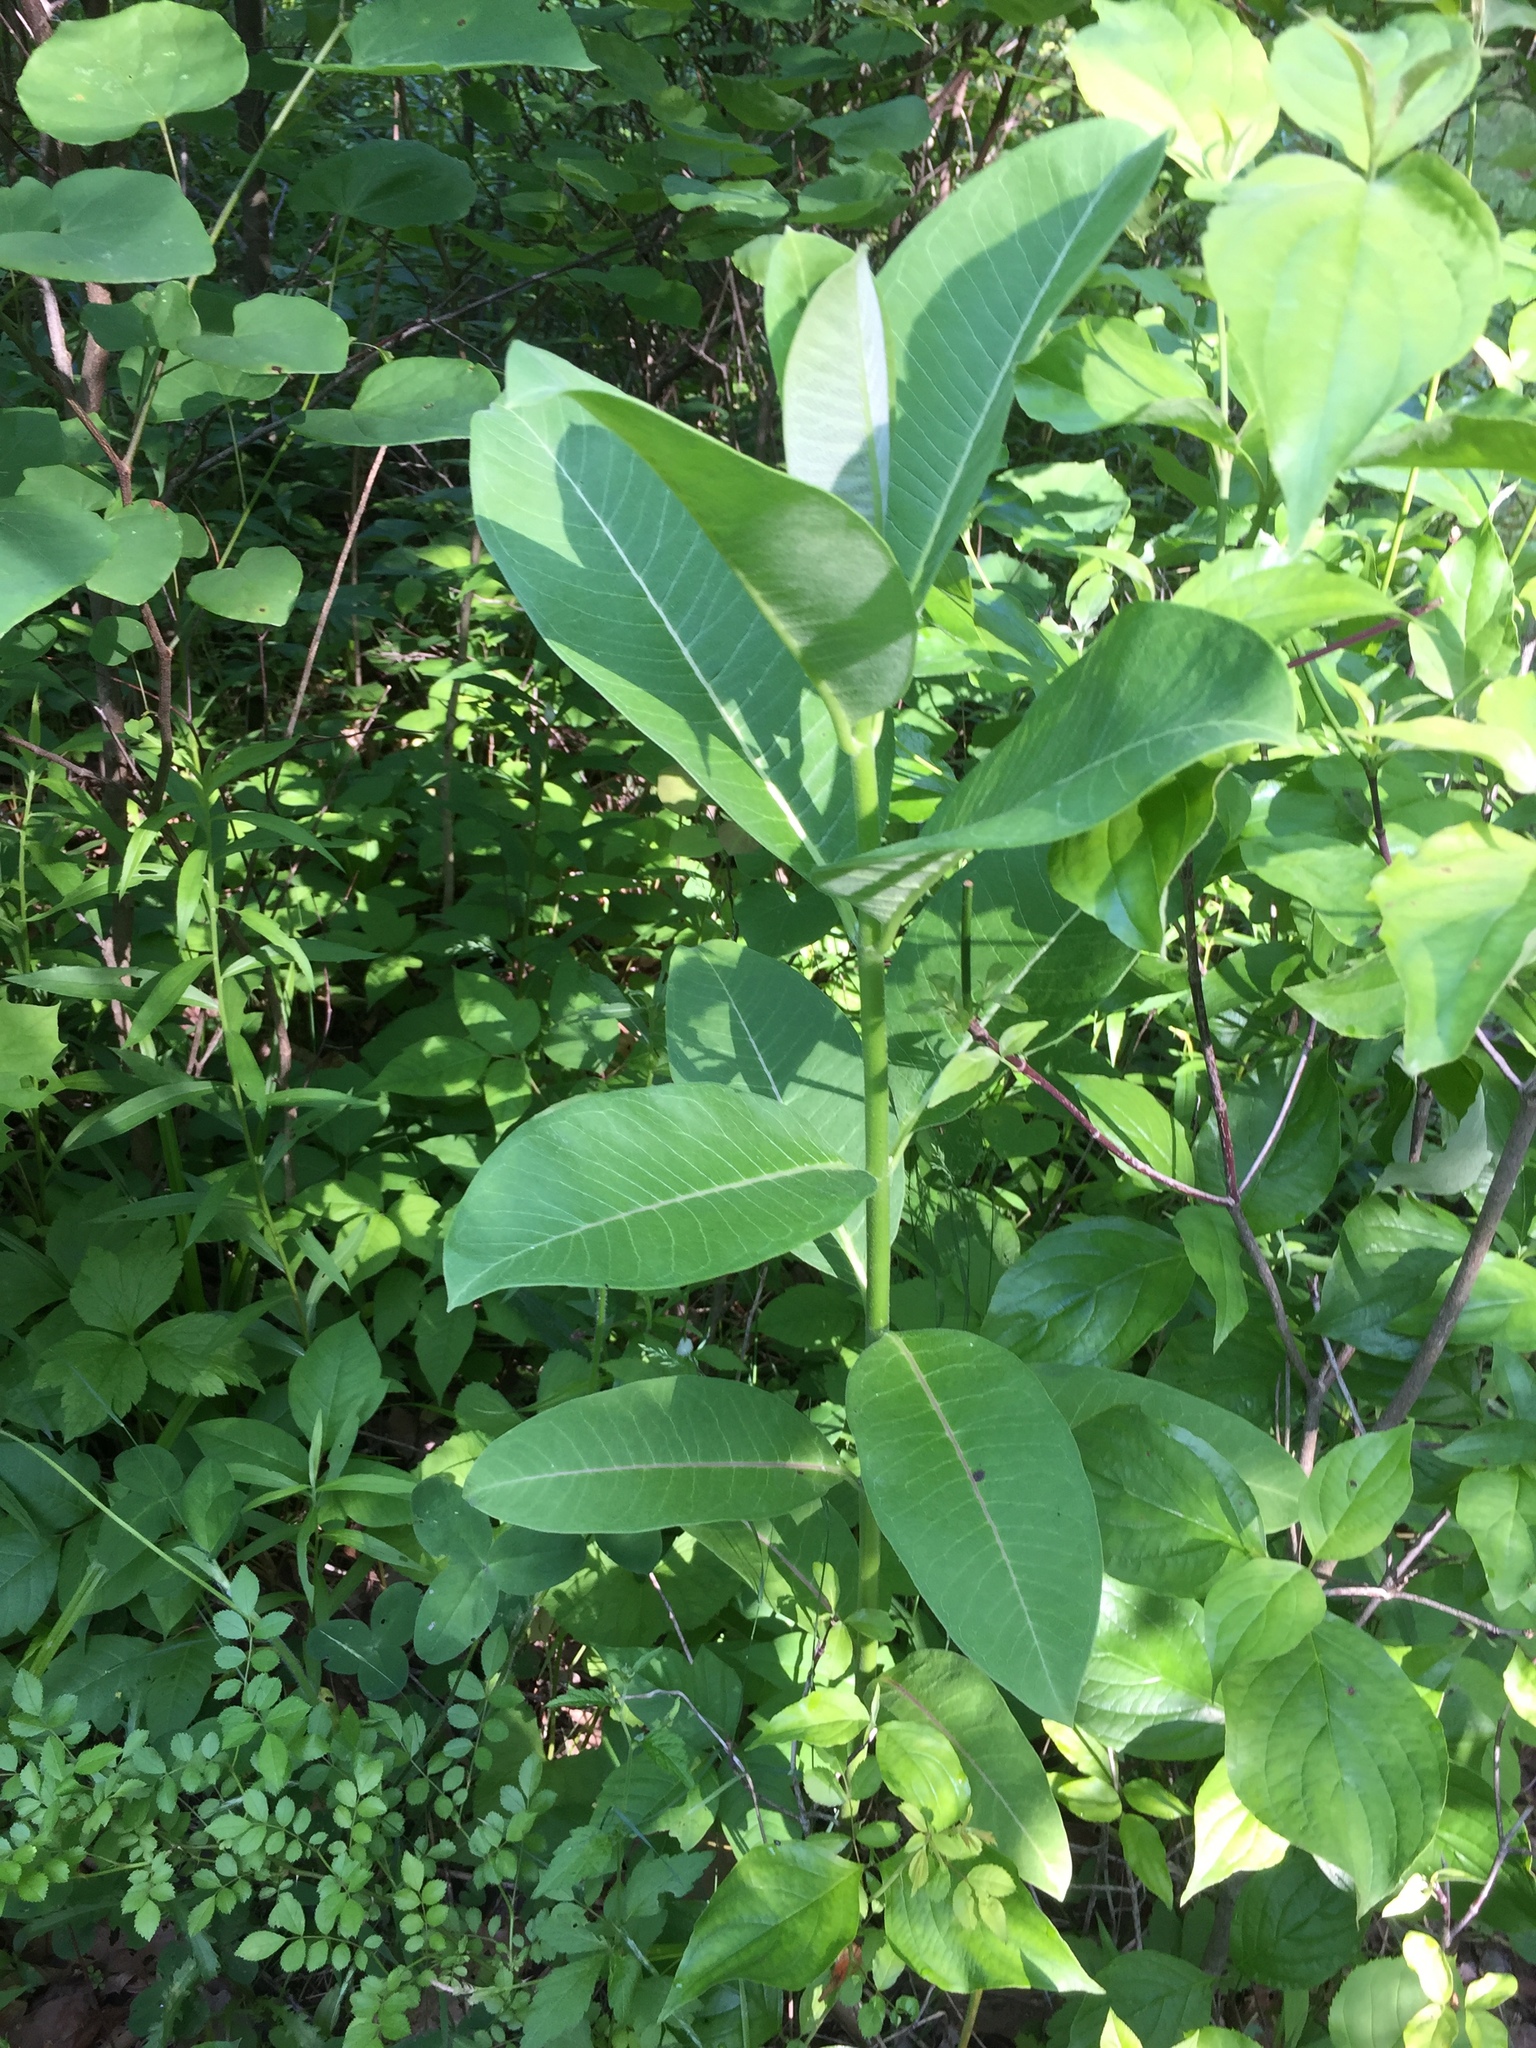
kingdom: Plantae
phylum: Tracheophyta
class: Magnoliopsida
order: Gentianales
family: Apocynaceae
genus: Asclepias
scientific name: Asclepias syriaca
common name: Common milkweed
